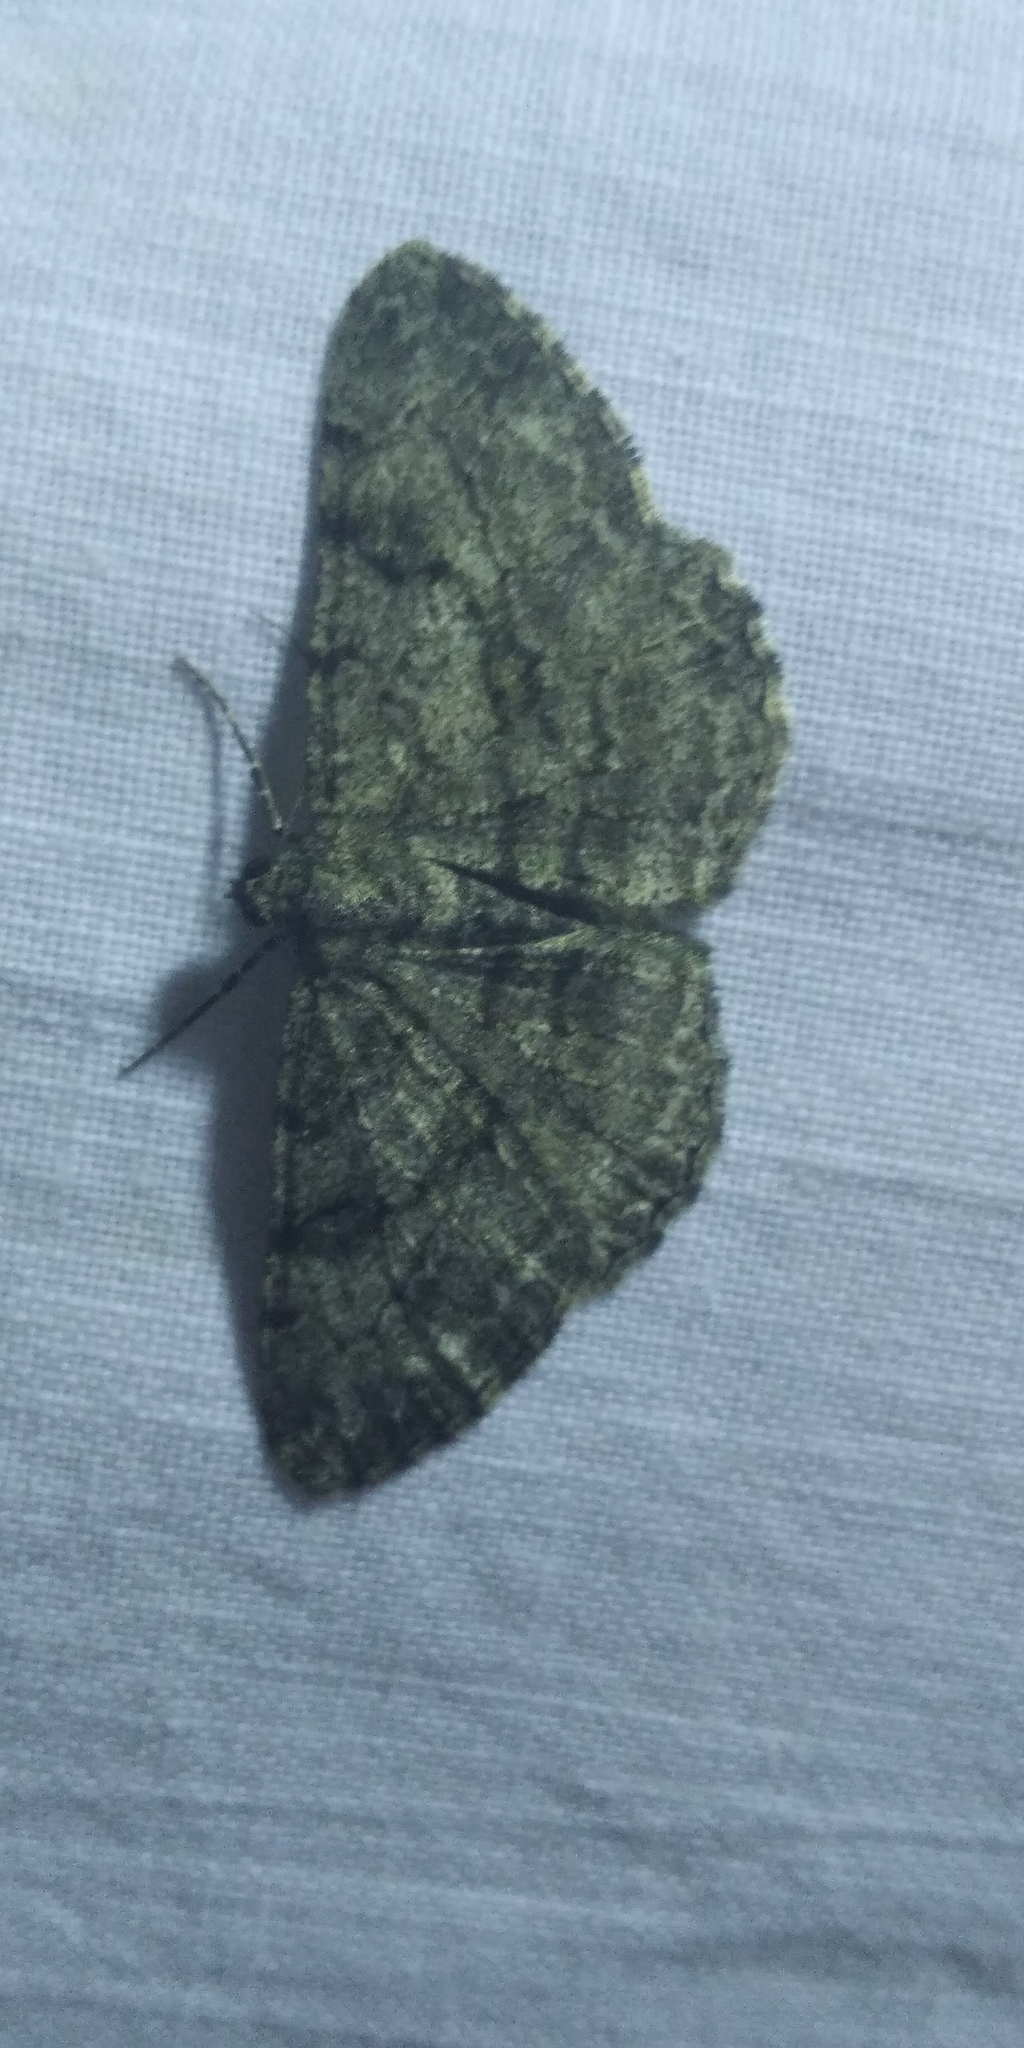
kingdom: Animalia
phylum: Arthropoda
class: Insecta
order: Lepidoptera
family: Geometridae
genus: Peribatodes
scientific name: Peribatodes rhomboidaria
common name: Willow beauty
